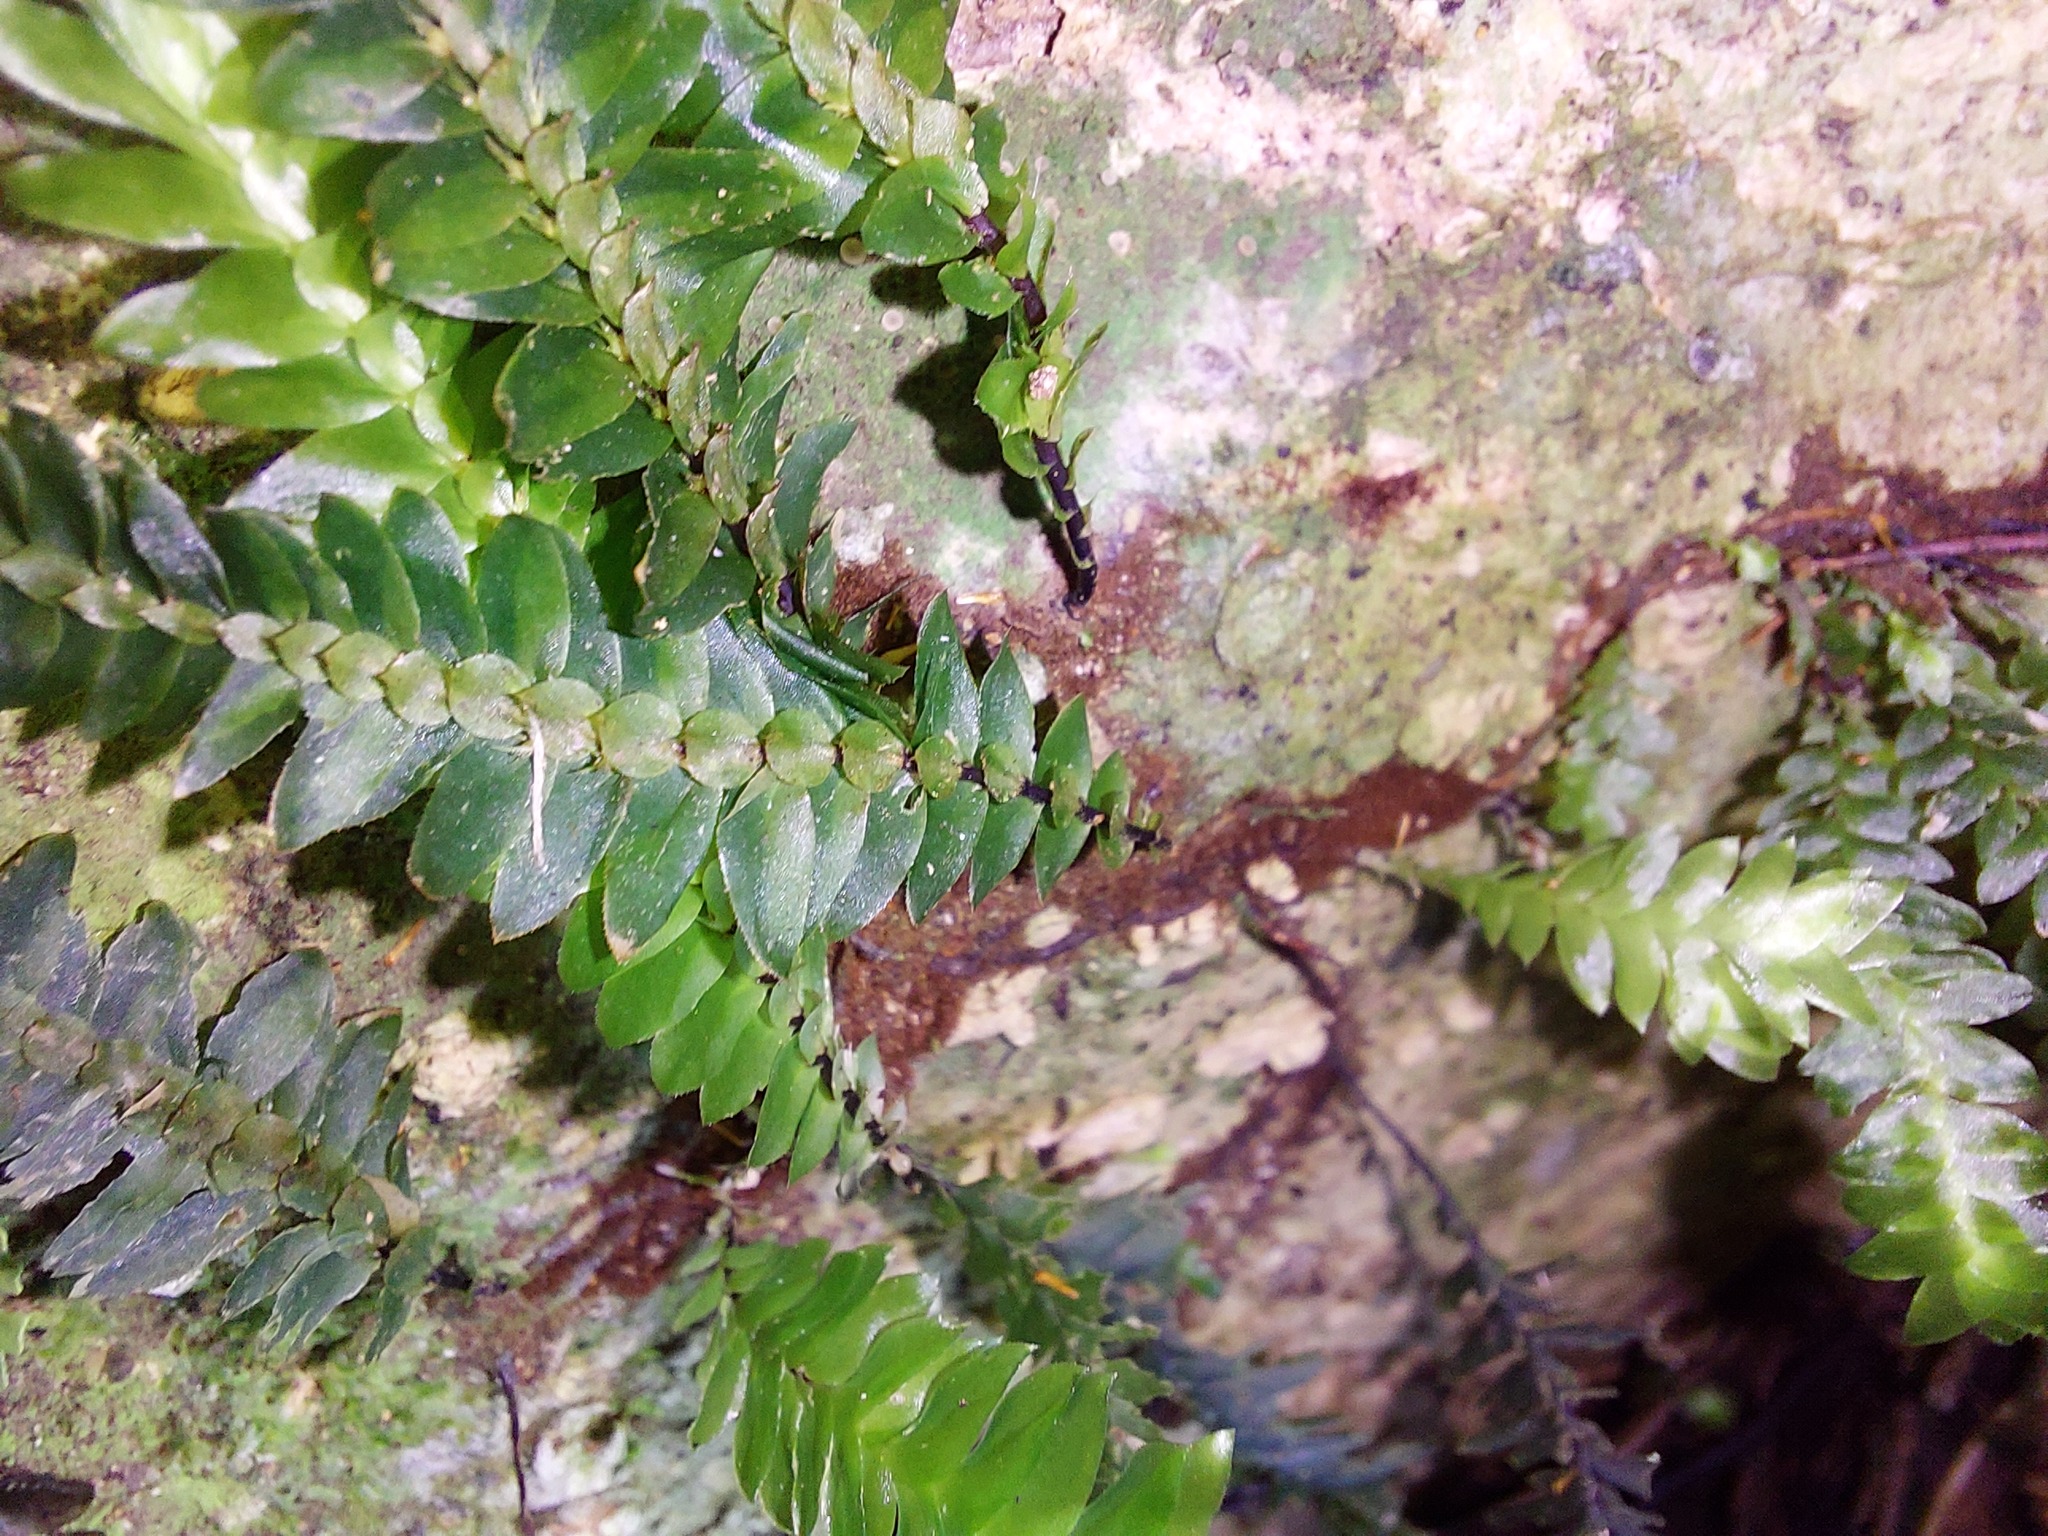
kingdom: Plantae
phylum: Bryophyta
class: Bryopsida
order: Hypopterygiales
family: Hypopterygiaceae
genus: Cyathophorum
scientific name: Cyathophorum bulbosum
